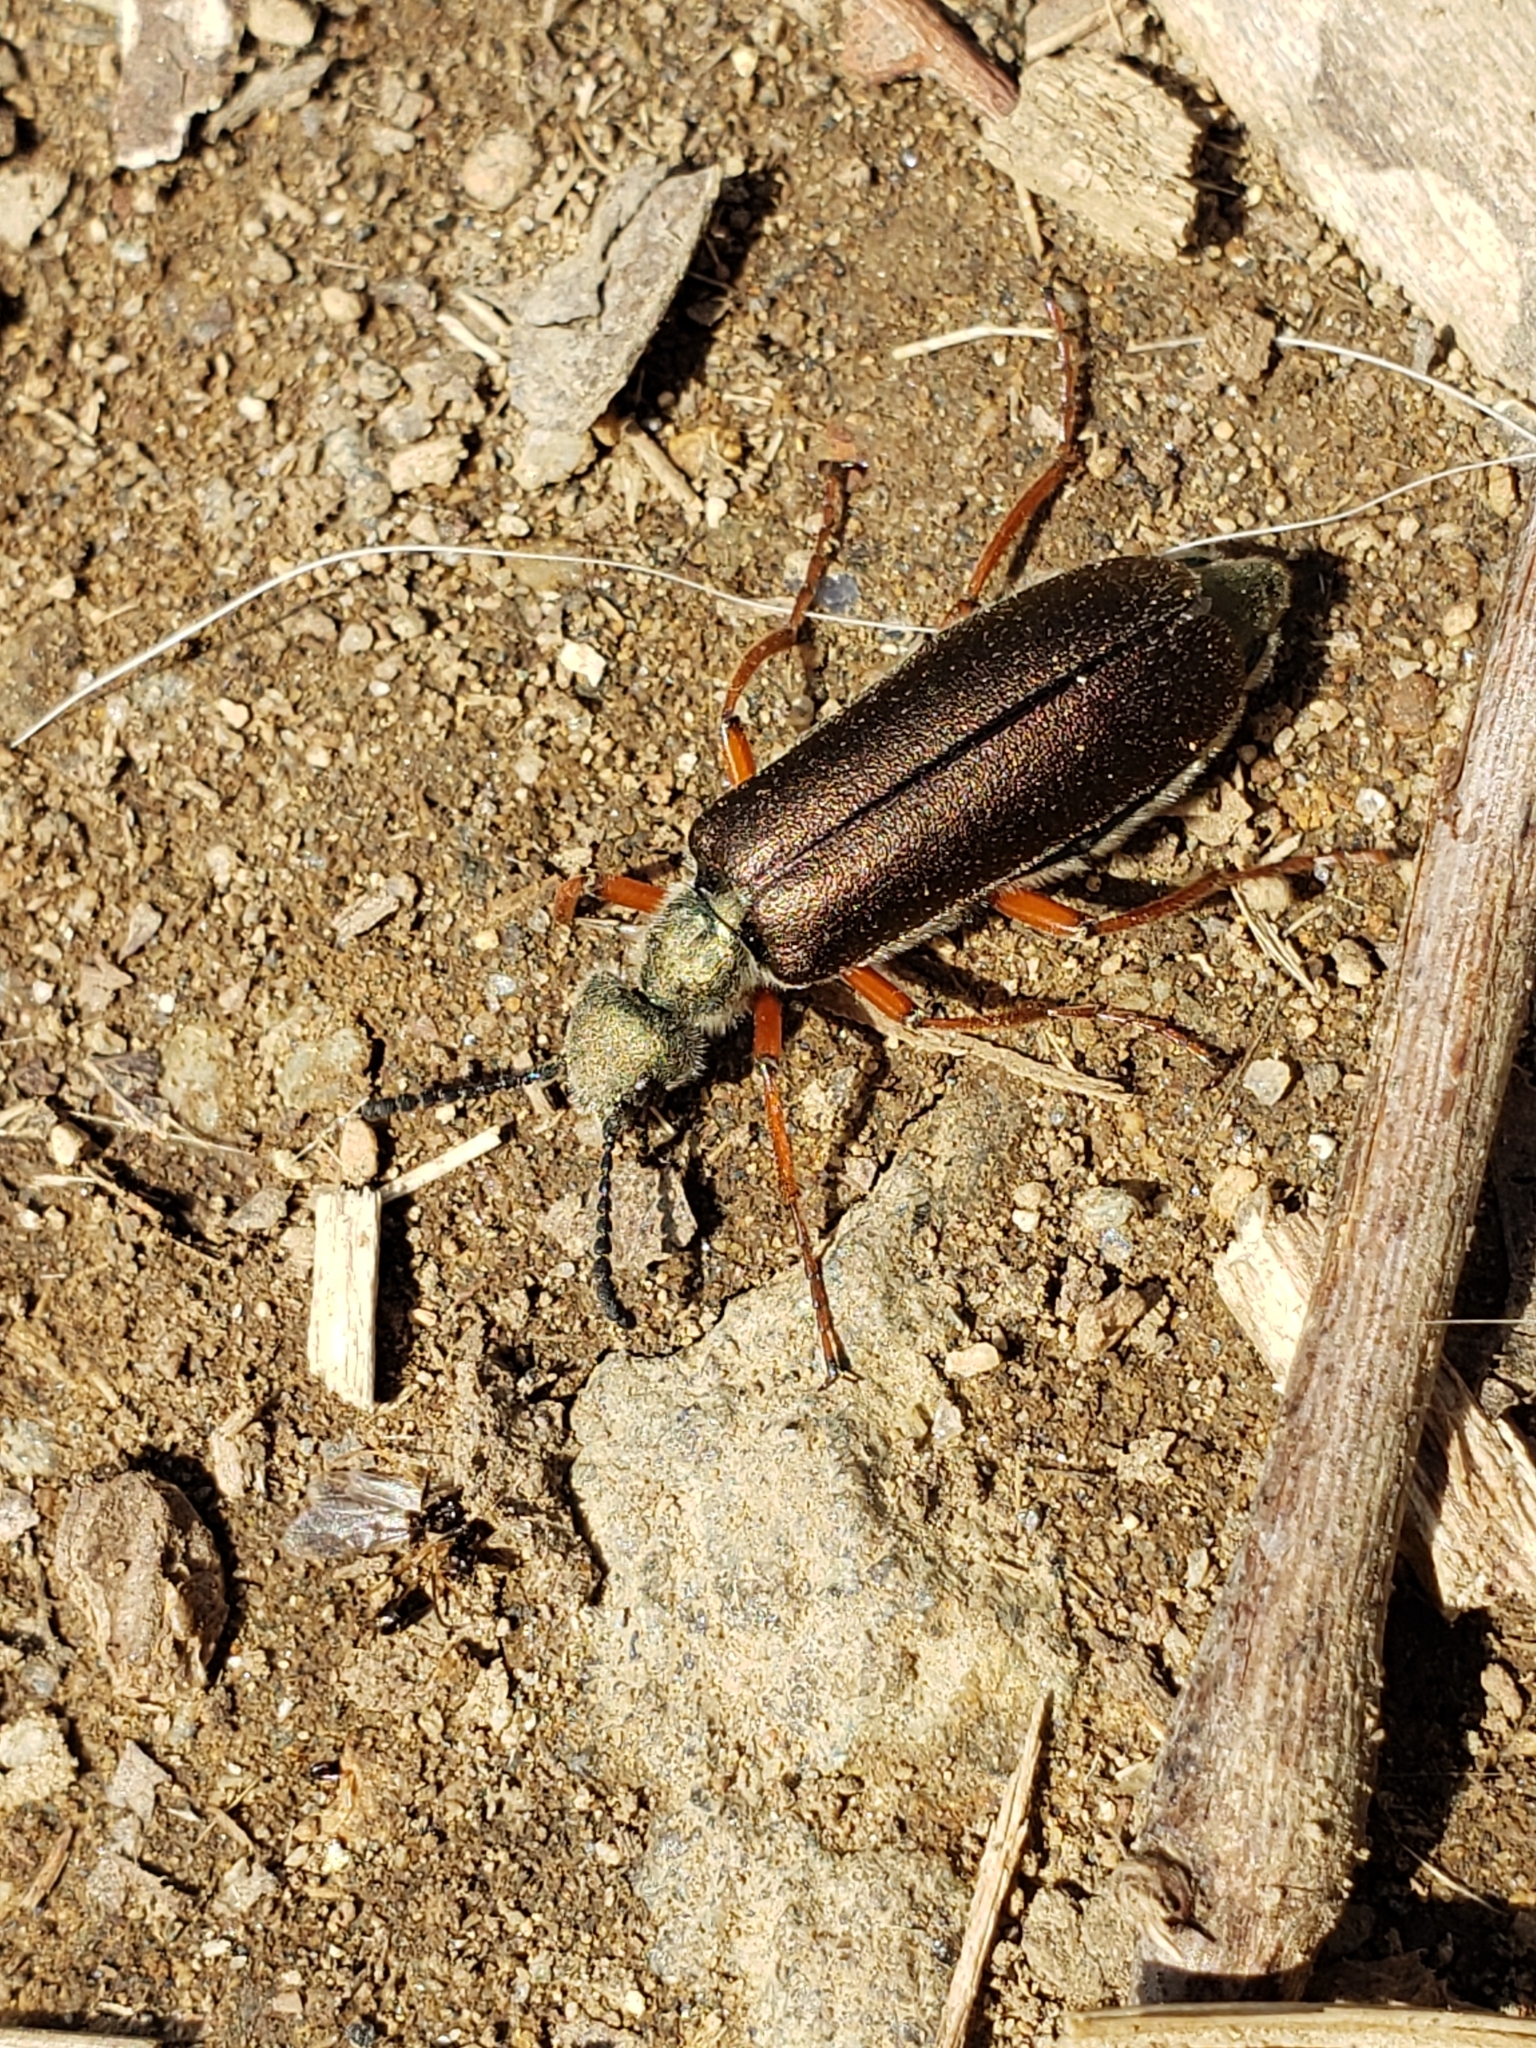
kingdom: Animalia
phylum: Arthropoda
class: Insecta
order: Coleoptera
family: Meloidae
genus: Lytta
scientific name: Lytta aenea
